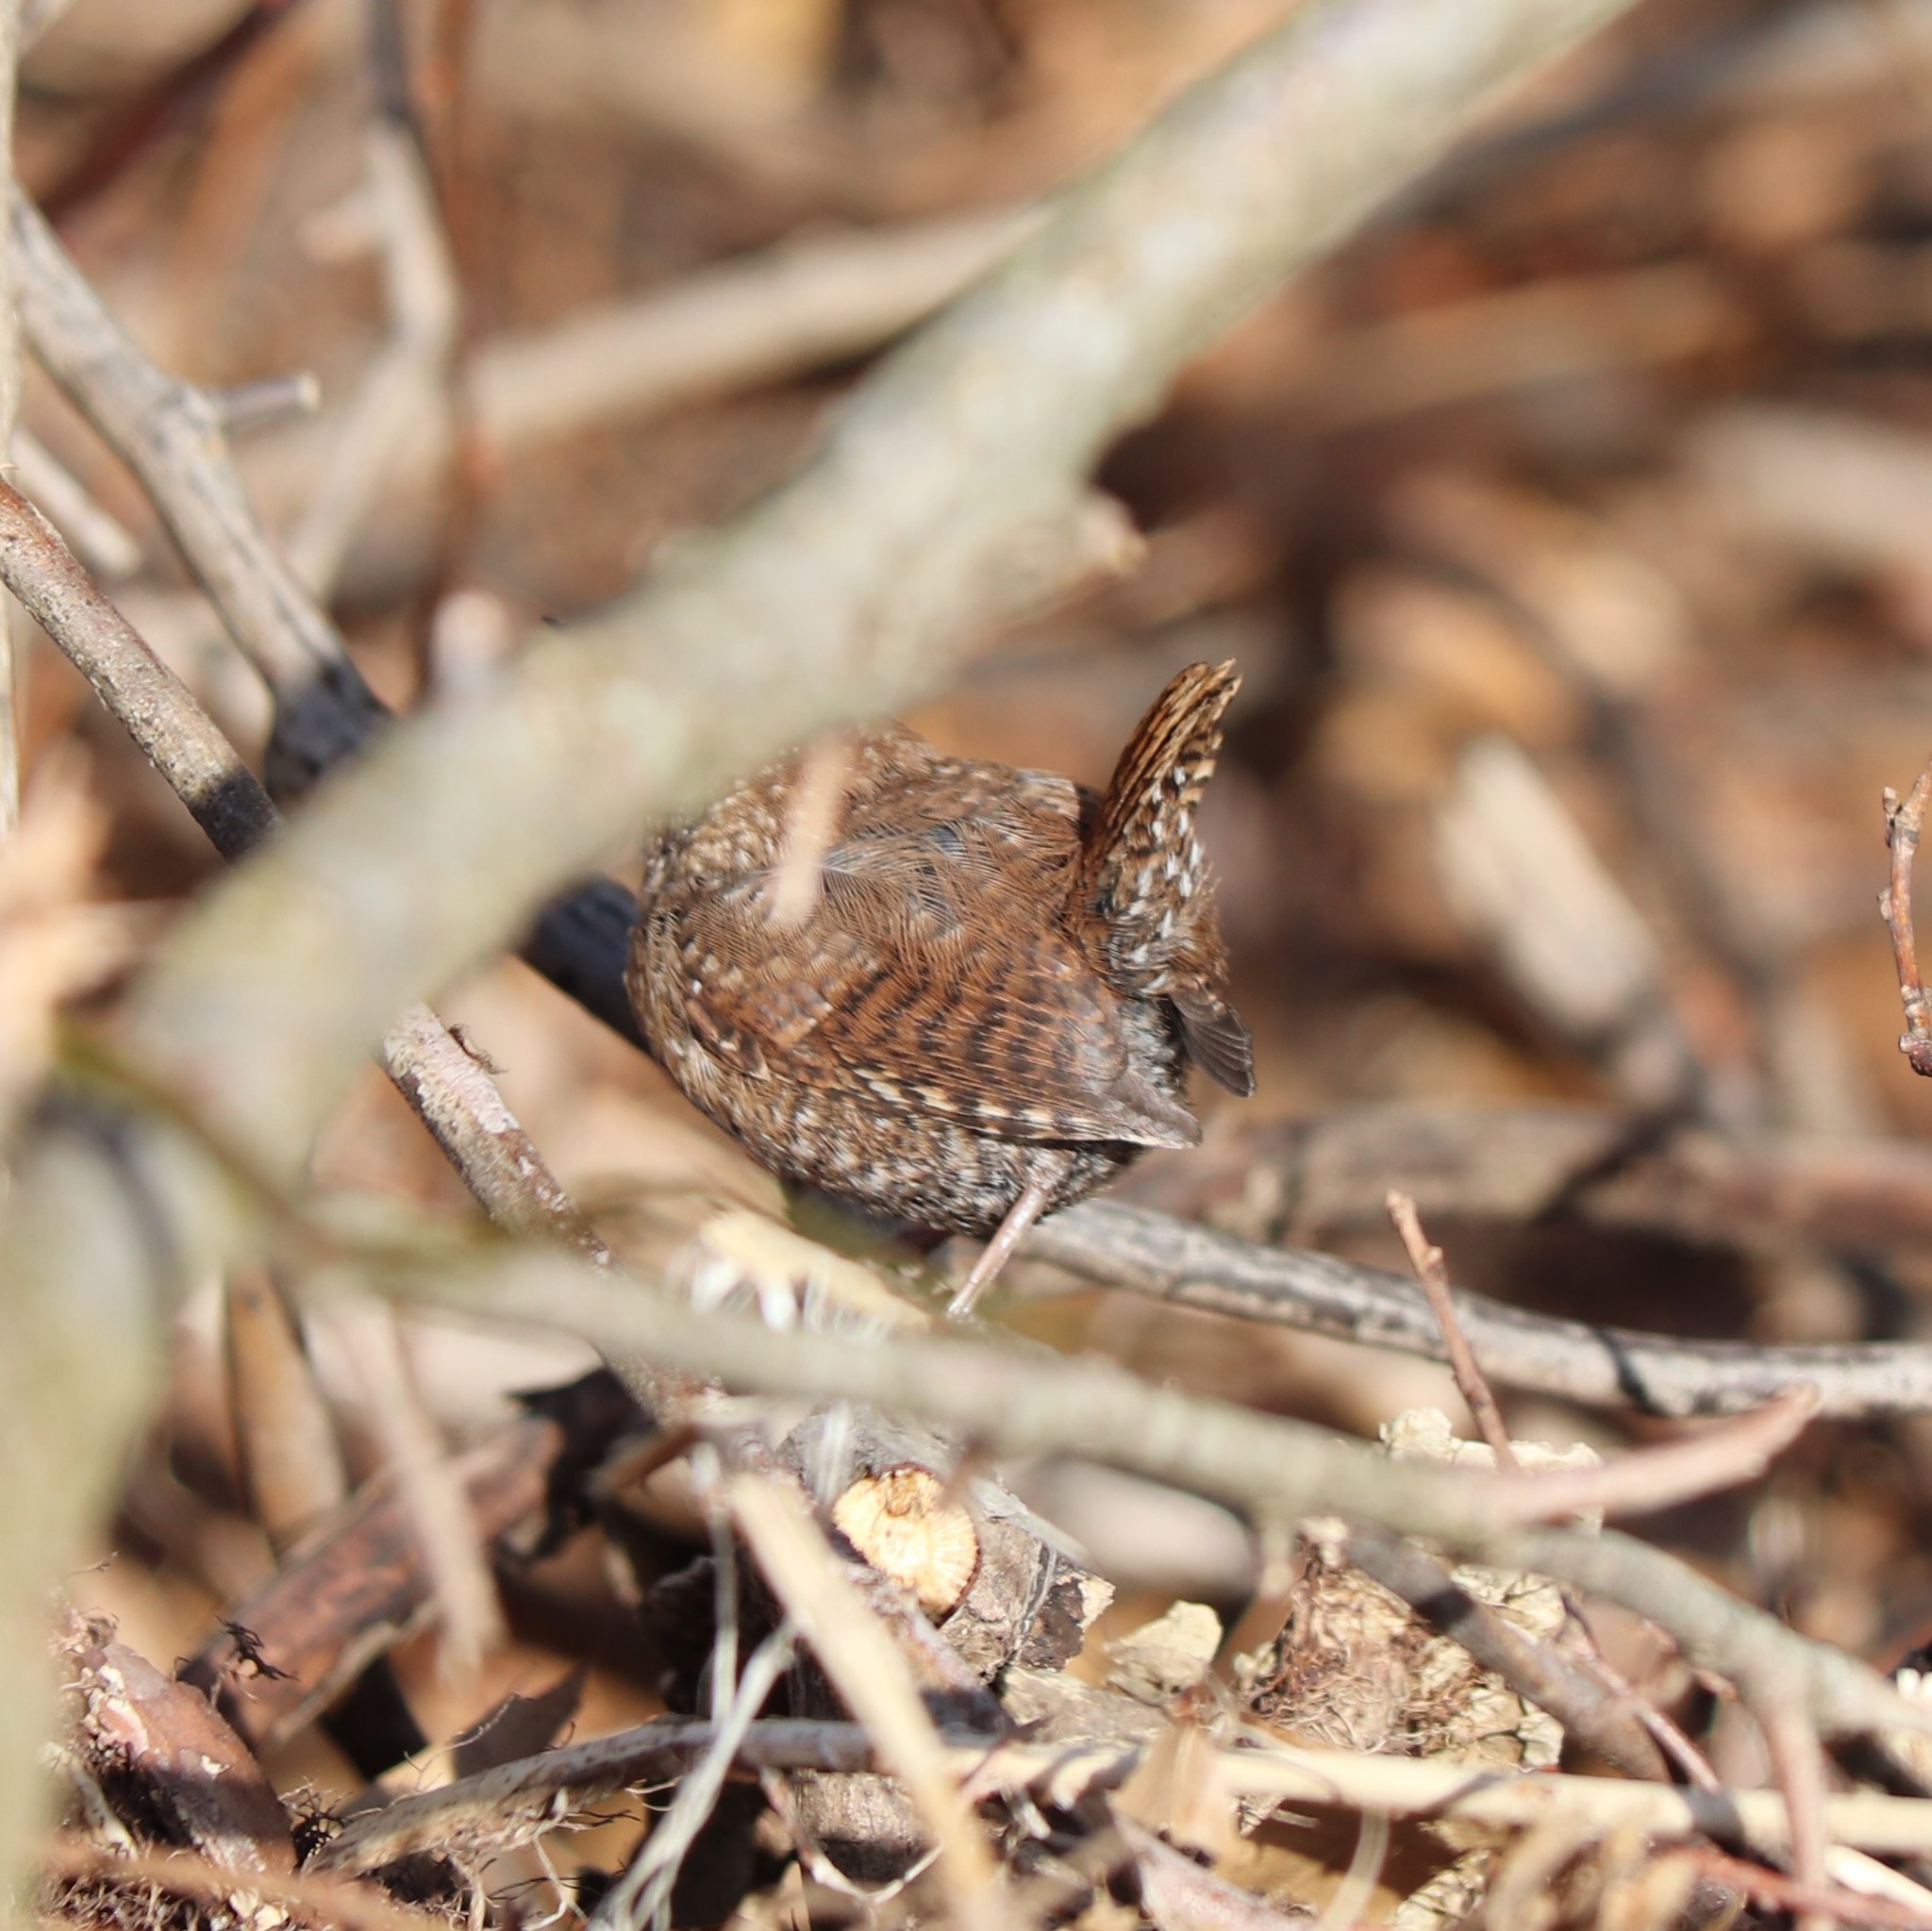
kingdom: Animalia
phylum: Chordata
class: Aves
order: Passeriformes
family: Troglodytidae
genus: Troglodytes
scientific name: Troglodytes hiemalis
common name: Winter wren
